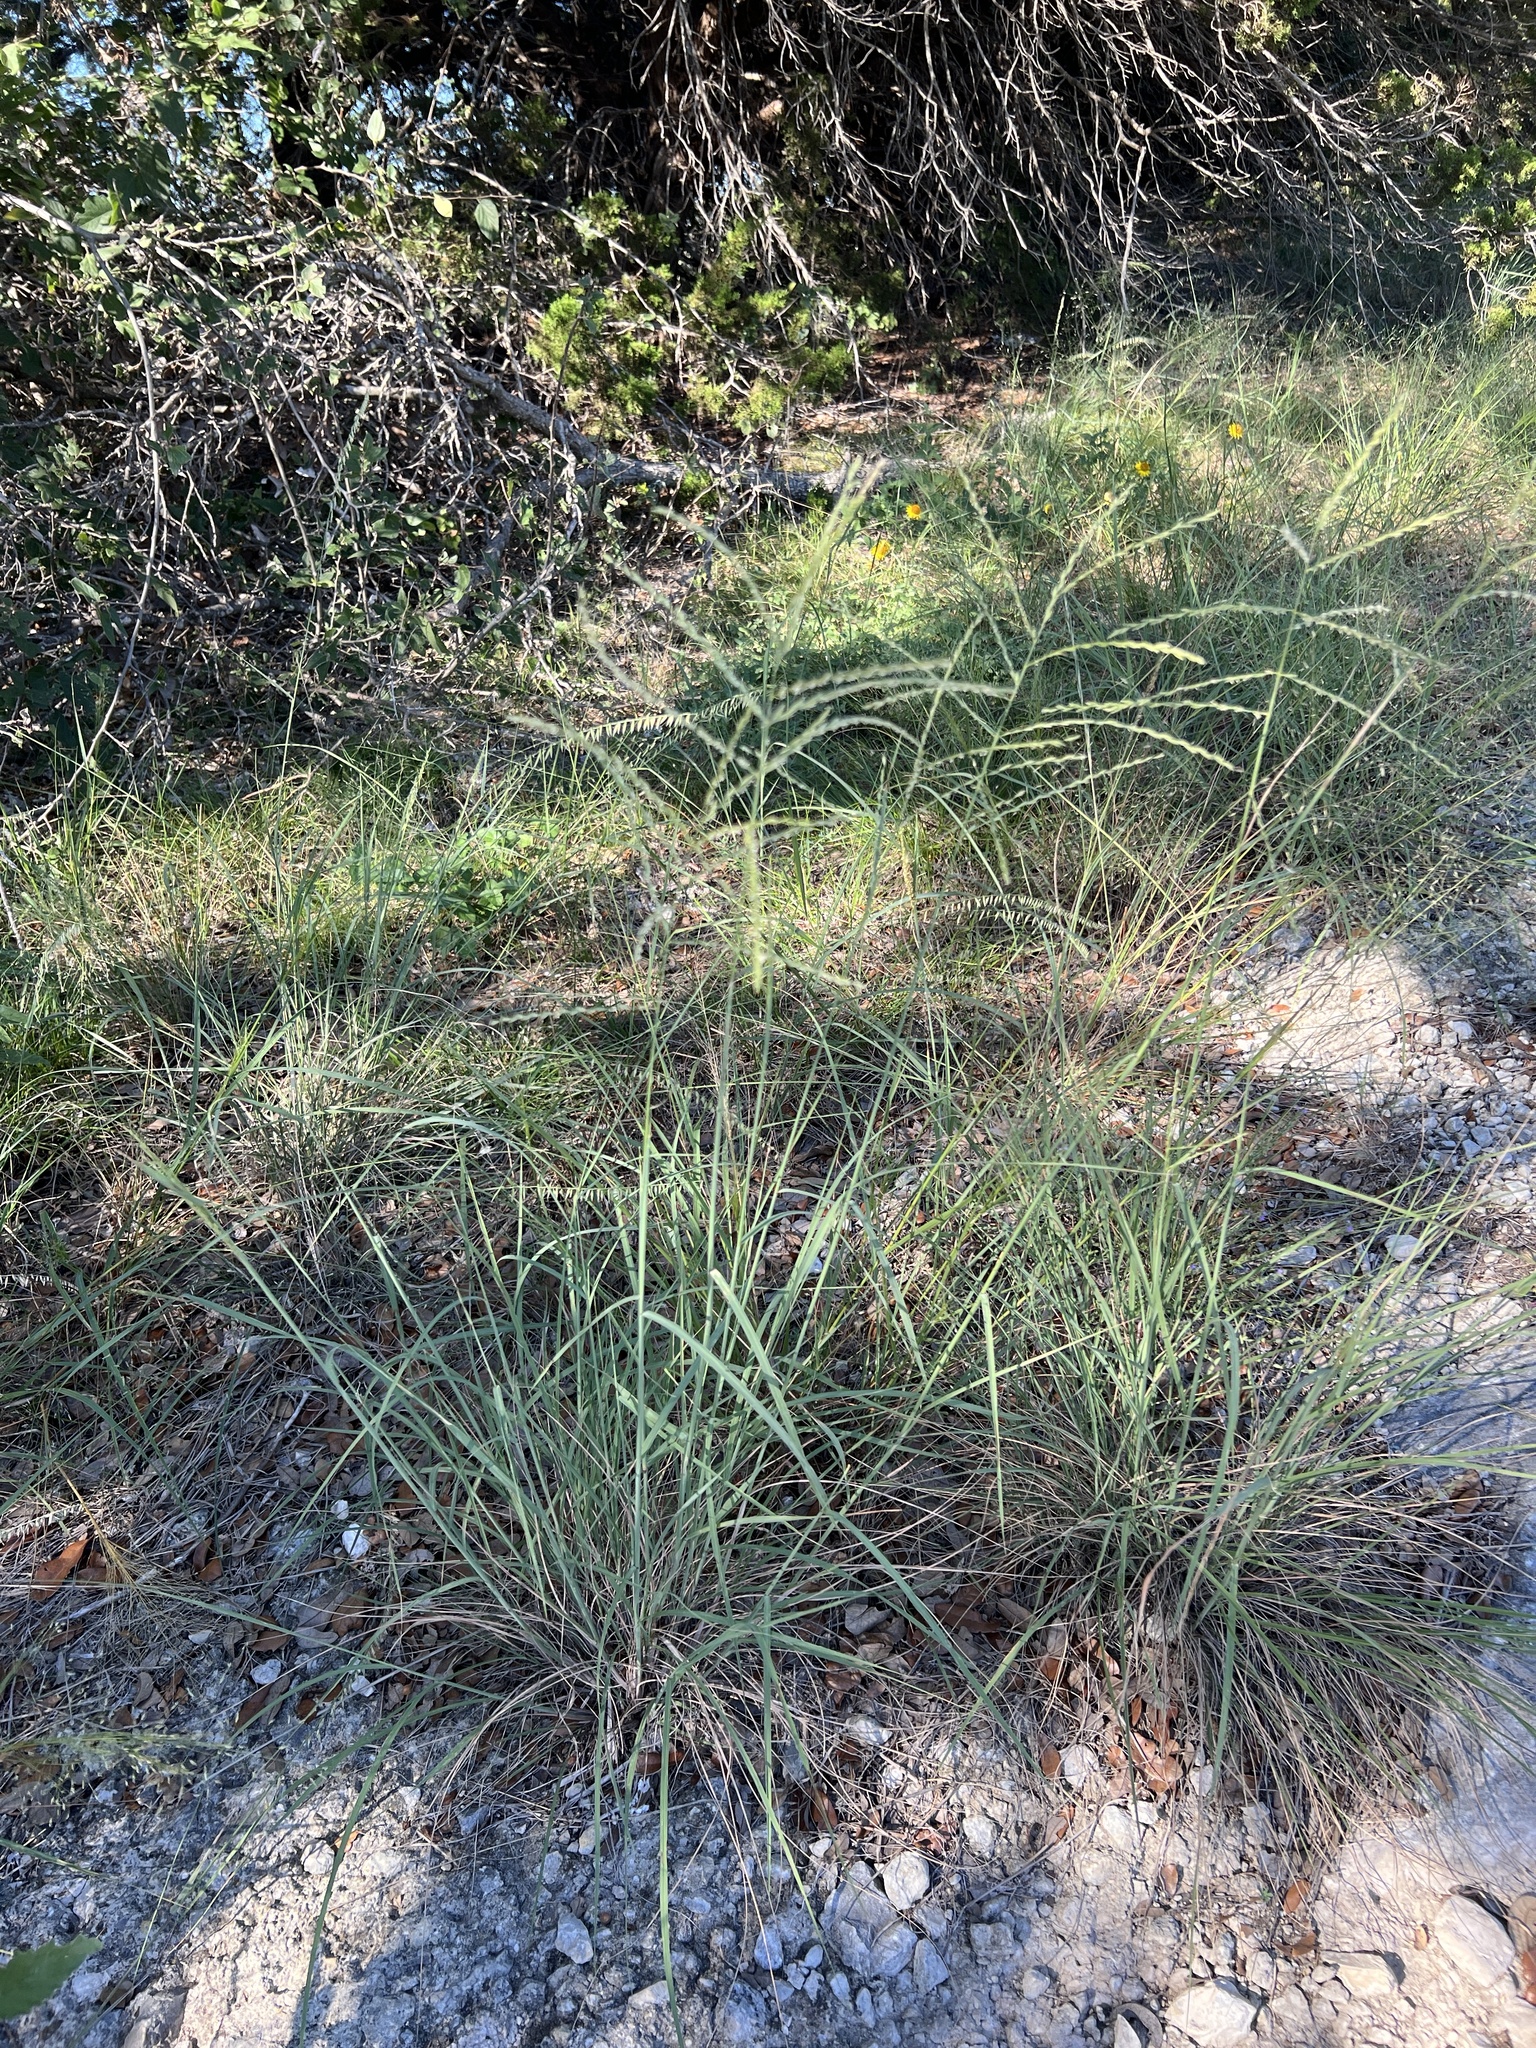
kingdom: Plantae
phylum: Tracheophyta
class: Liliopsida
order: Poales
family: Poaceae
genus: Disakisperma
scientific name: Disakisperma dubium
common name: Green sprangletop
